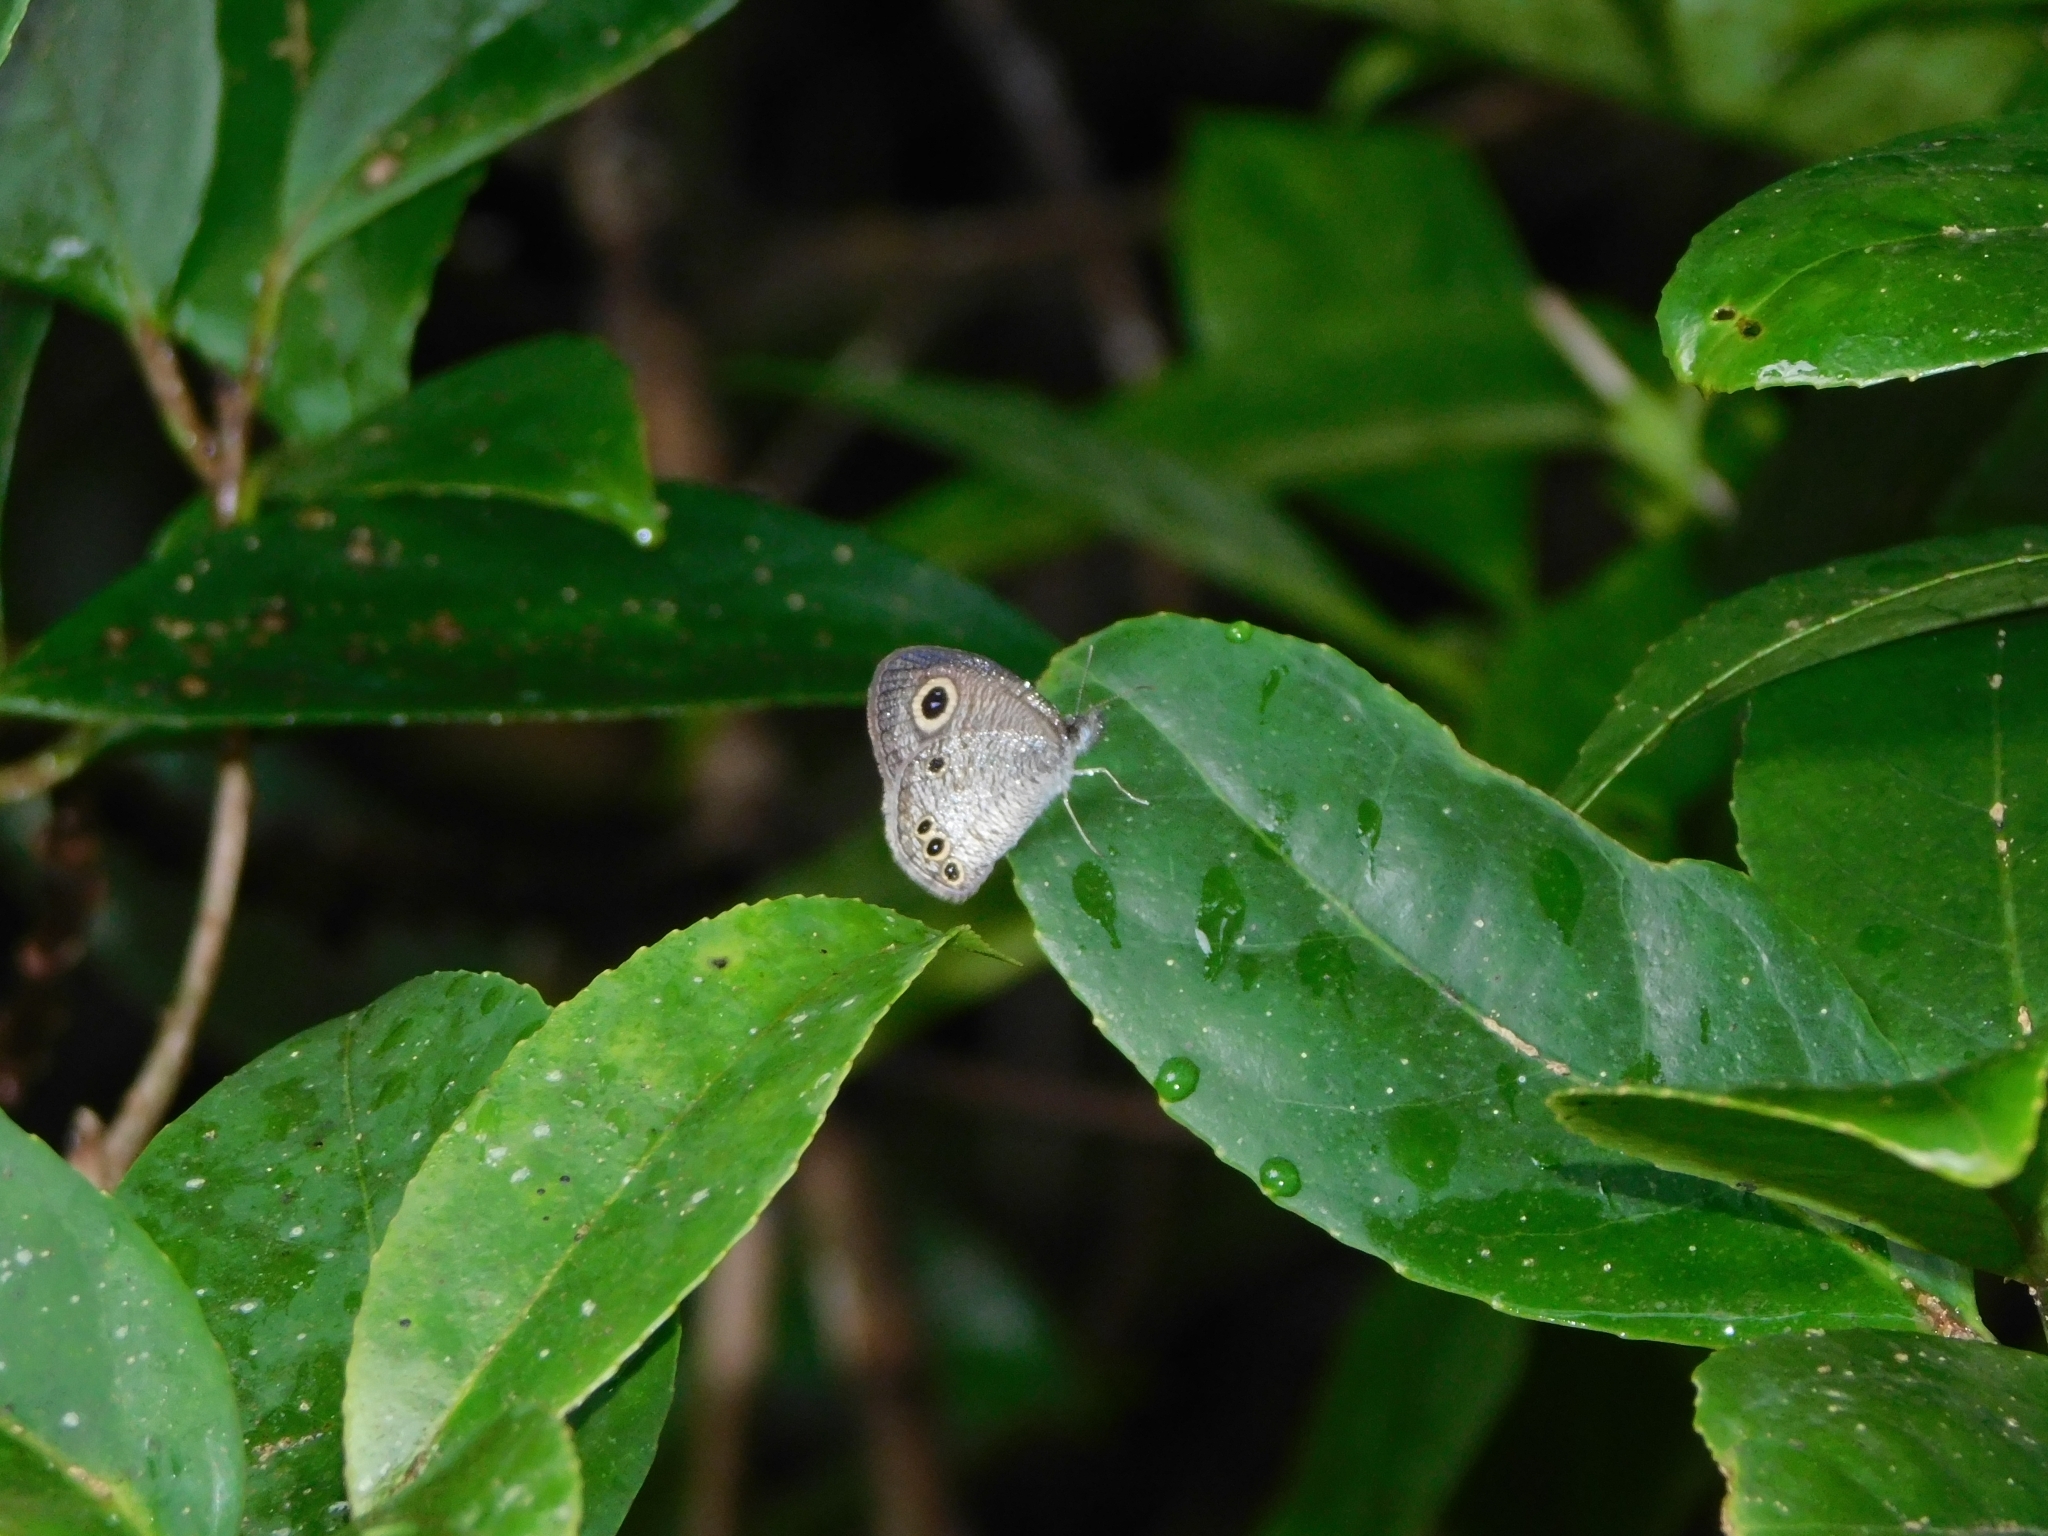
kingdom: Animalia
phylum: Arthropoda
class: Insecta
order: Lepidoptera
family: Nymphalidae
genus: Ypthima
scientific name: Ypthima huebneri
